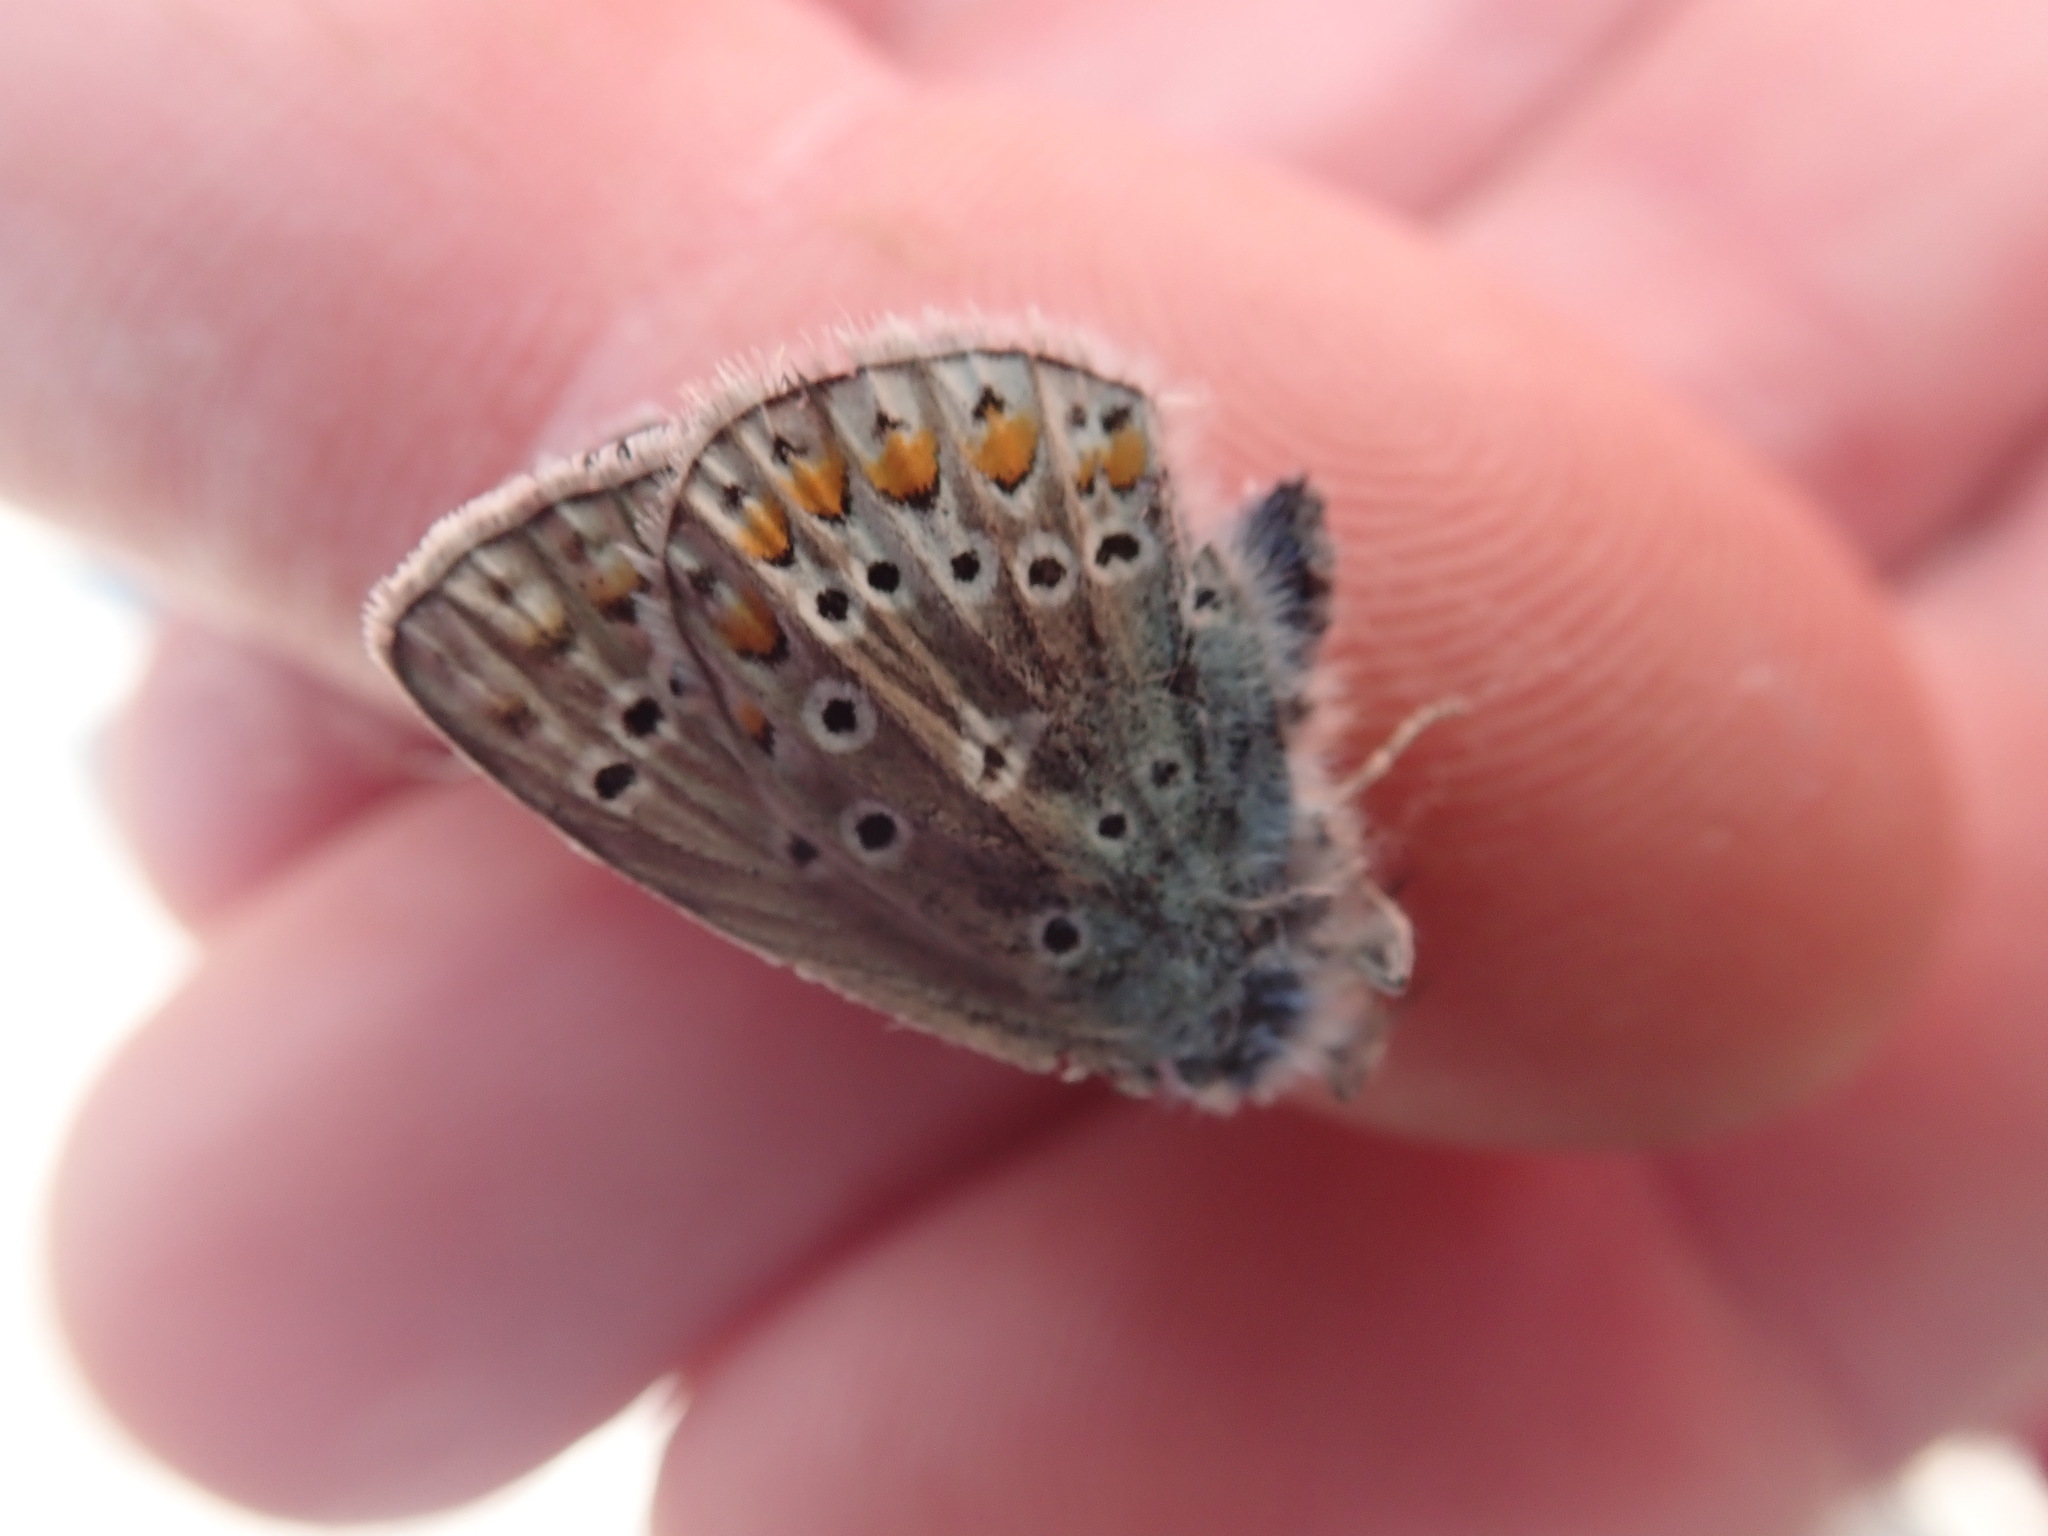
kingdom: Animalia
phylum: Arthropoda
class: Insecta
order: Lepidoptera
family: Lycaenidae
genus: Polyommatus
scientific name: Polyommatus icarus
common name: Common blue
